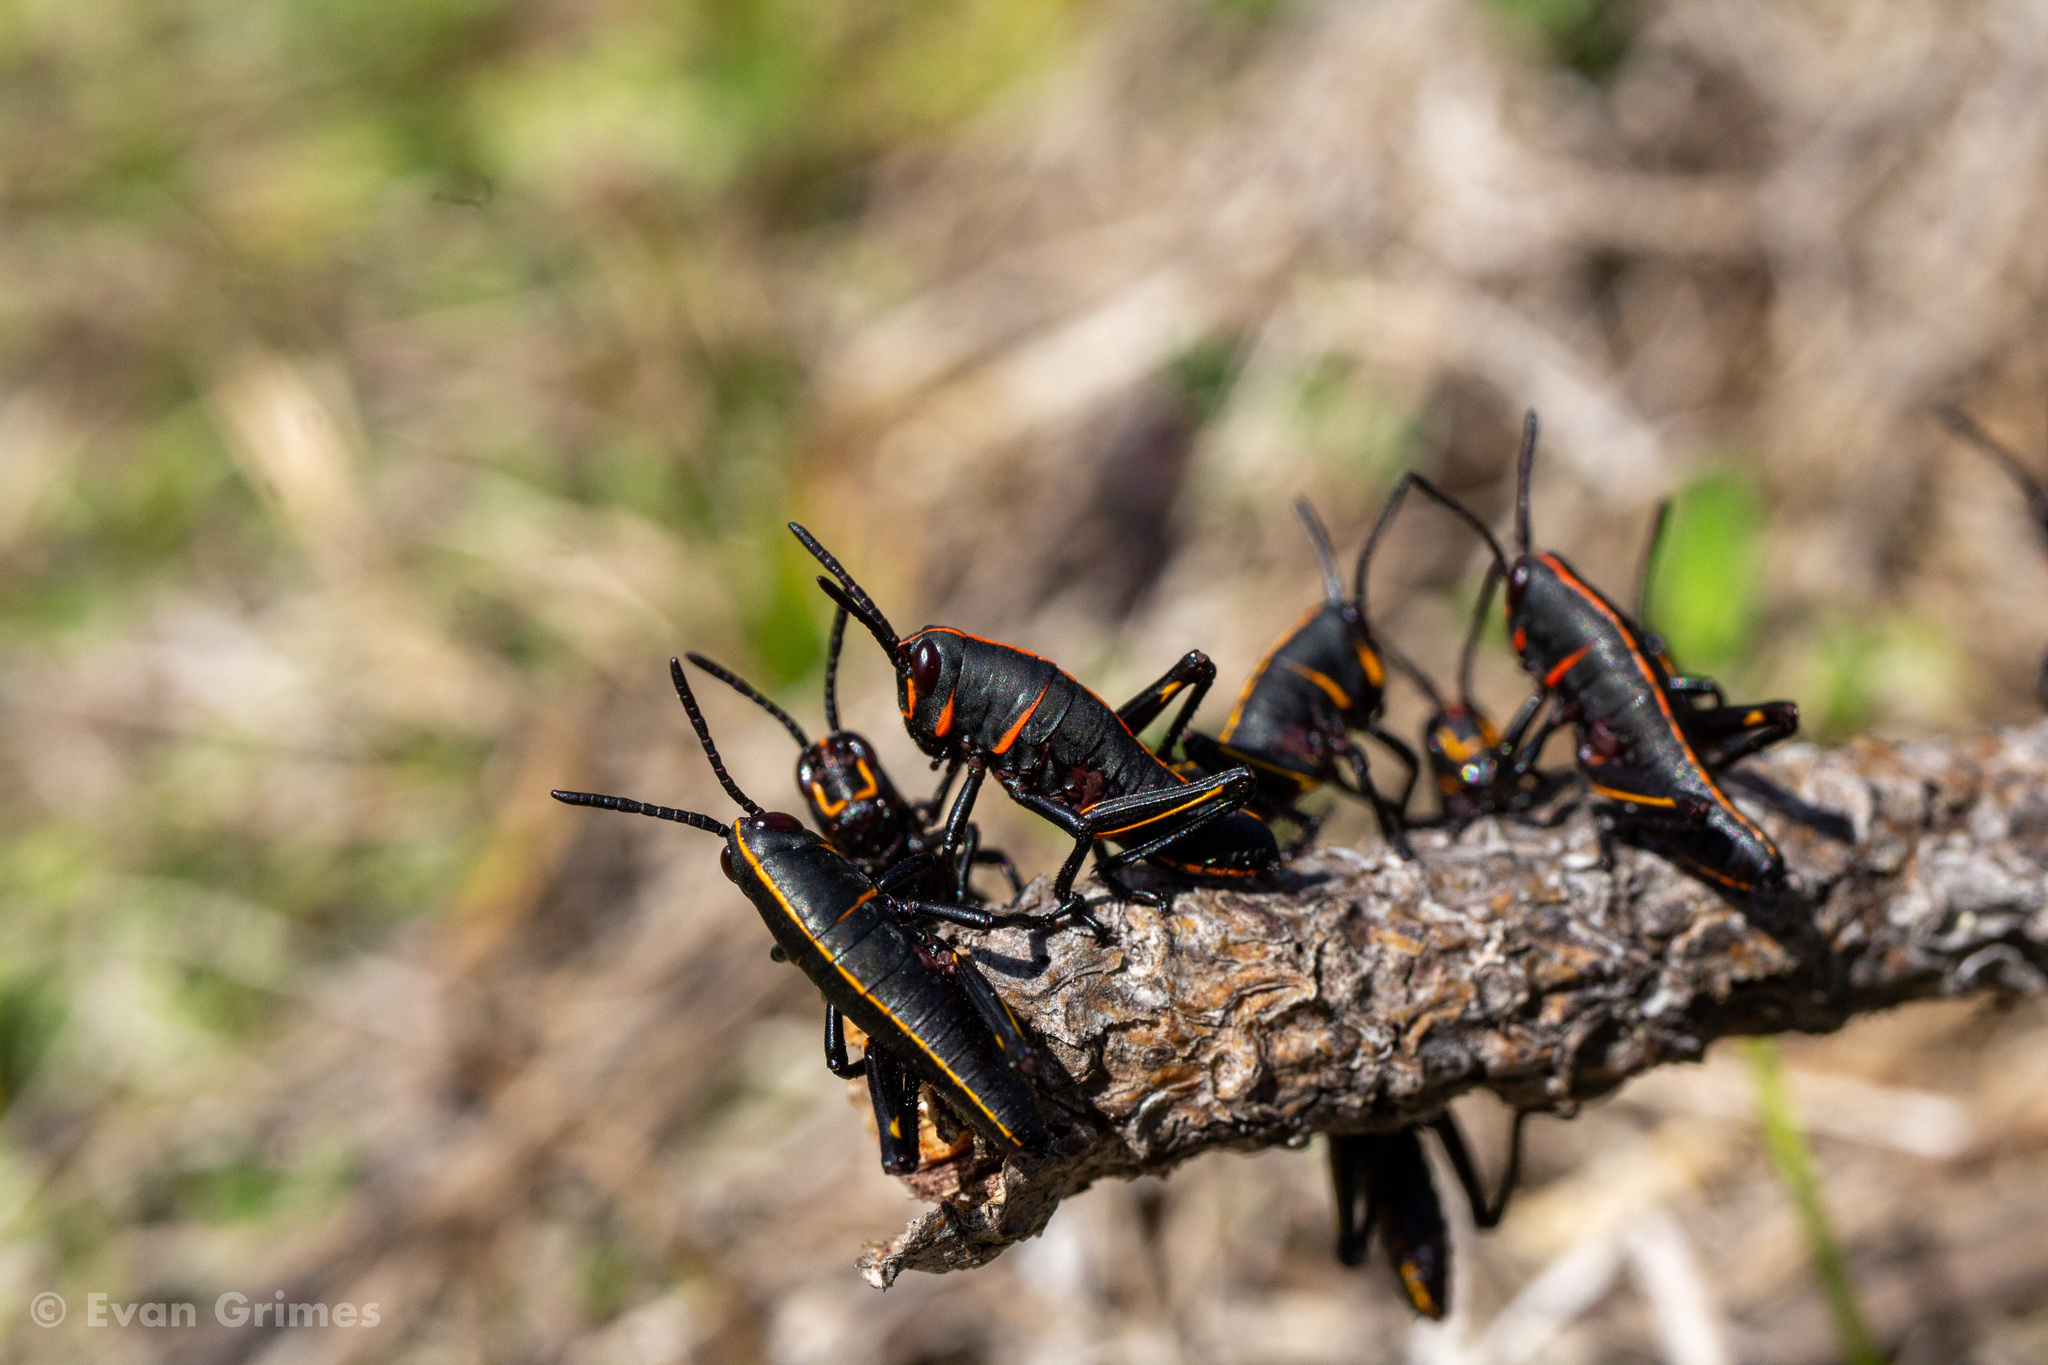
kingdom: Animalia
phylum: Arthropoda
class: Insecta
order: Orthoptera
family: Romaleidae
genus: Romalea
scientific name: Romalea microptera
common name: Eastern lubber grasshopper
